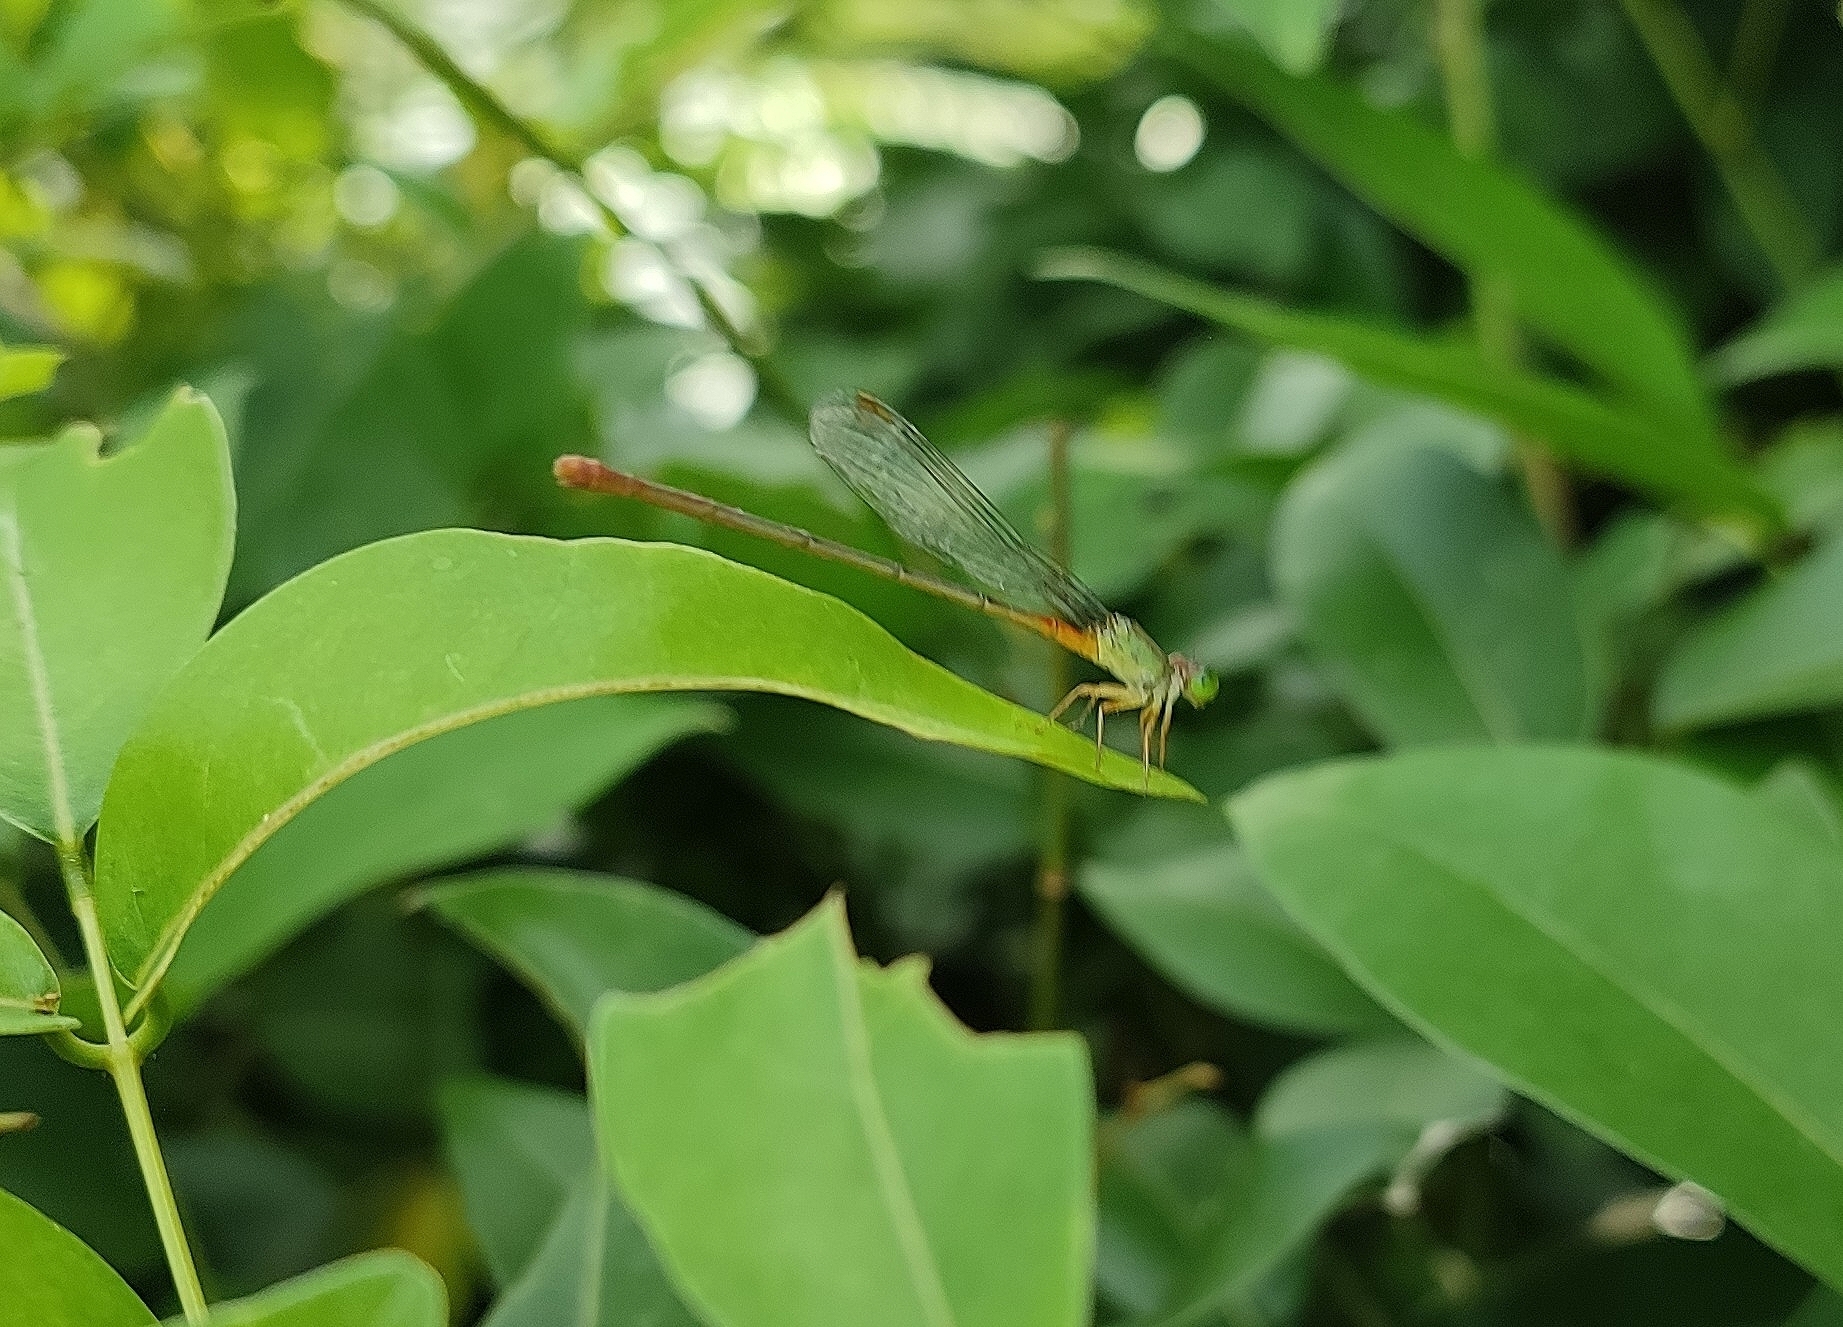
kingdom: Animalia
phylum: Arthropoda
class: Insecta
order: Odonata
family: Coenagrionidae
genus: Ceriagrion
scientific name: Ceriagrion cerinorubellum
